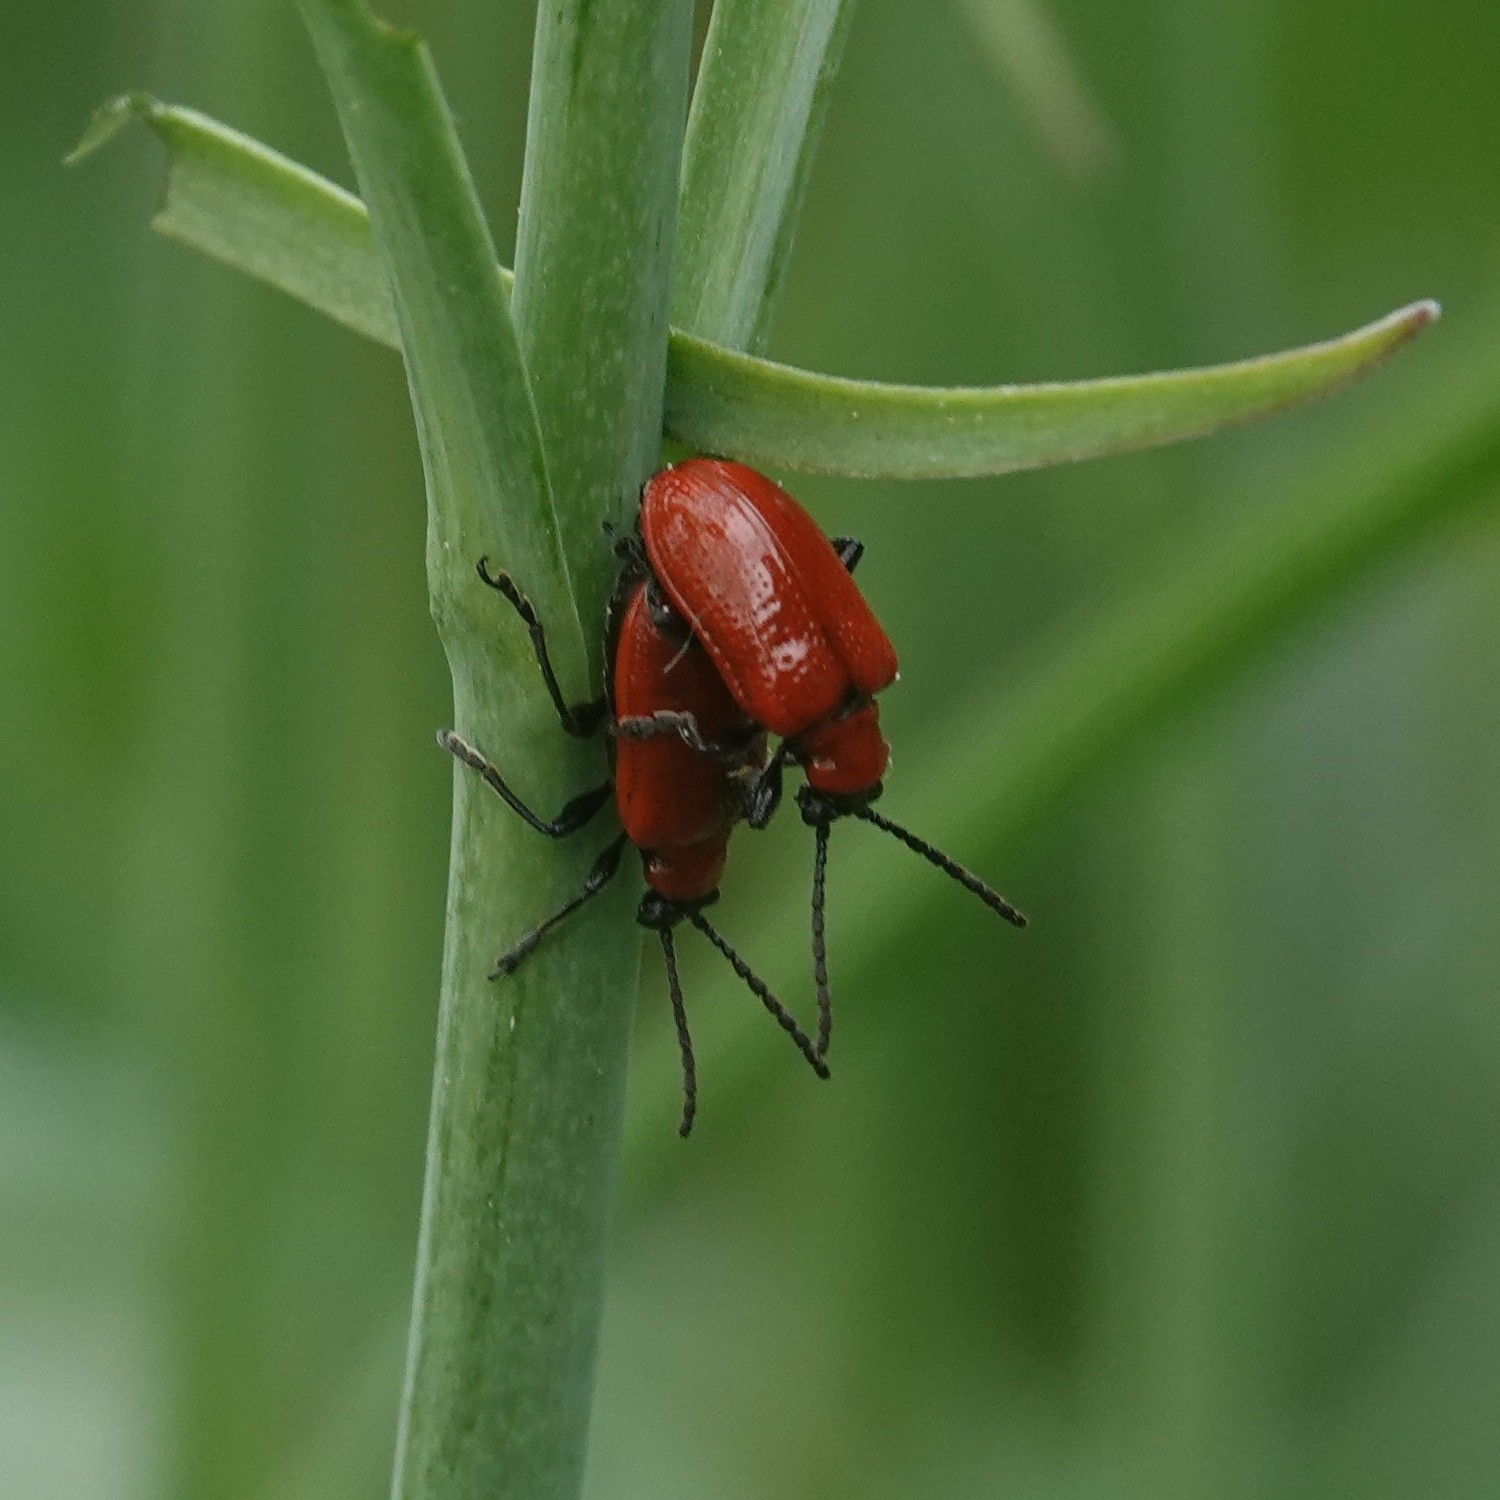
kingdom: Animalia
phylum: Arthropoda
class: Insecta
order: Coleoptera
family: Chrysomelidae
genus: Lilioceris
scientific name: Lilioceris lilii
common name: Lily beetle
